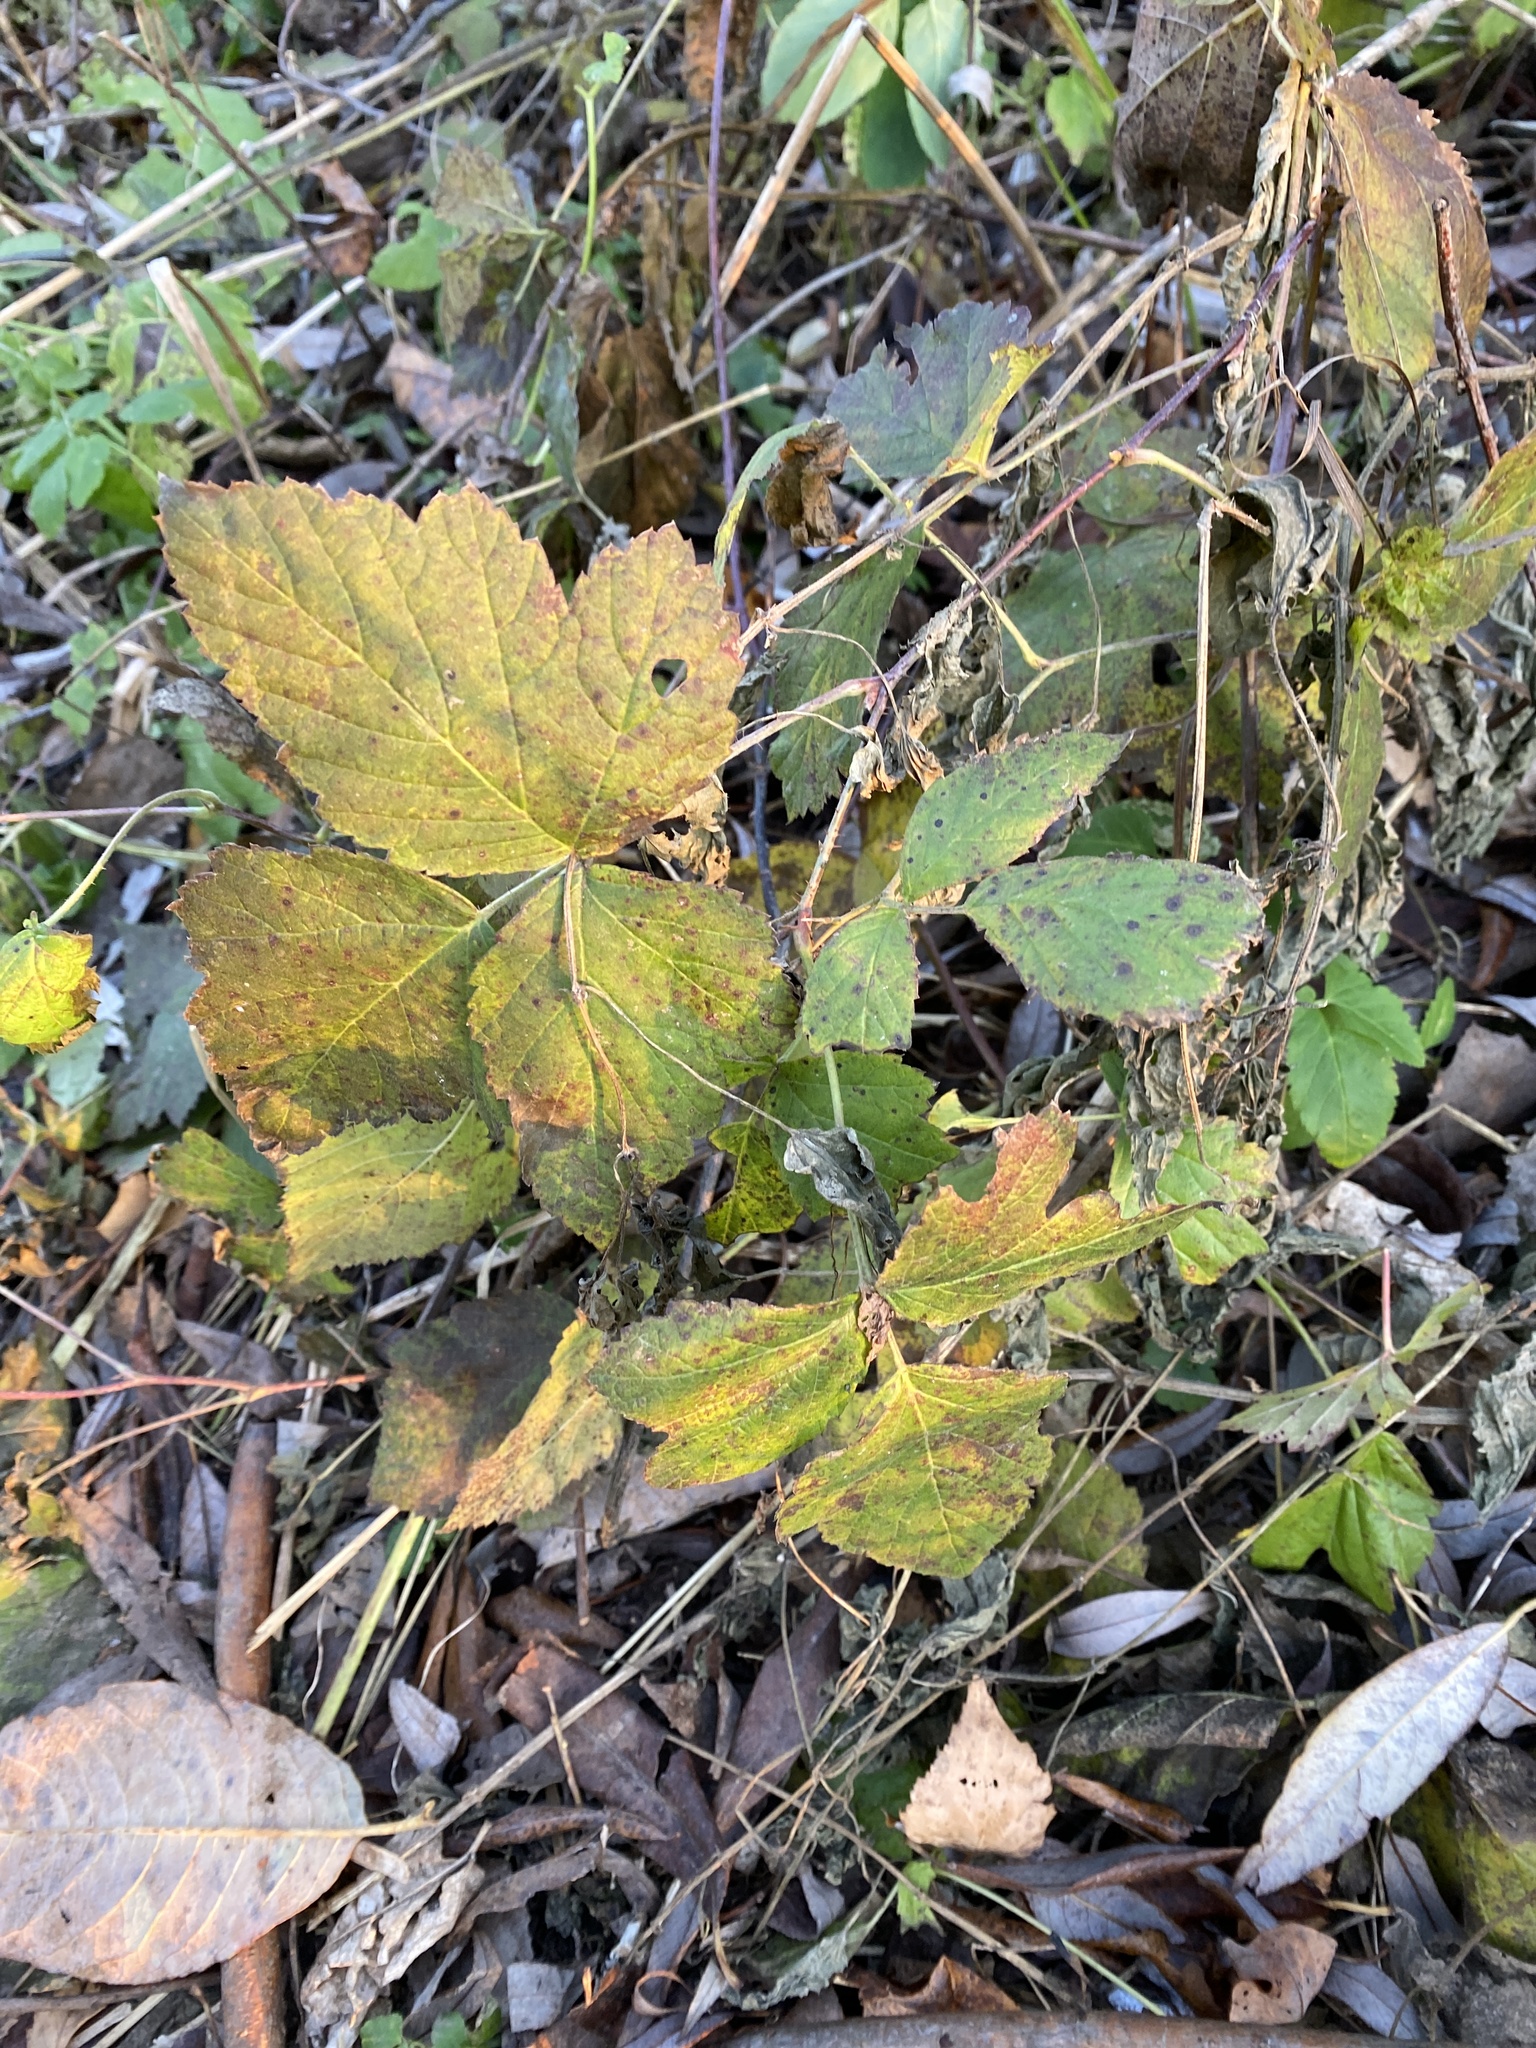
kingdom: Plantae
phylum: Tracheophyta
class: Magnoliopsida
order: Rosales
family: Rosaceae
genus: Rubus
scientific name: Rubus caesius
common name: Dewberry
